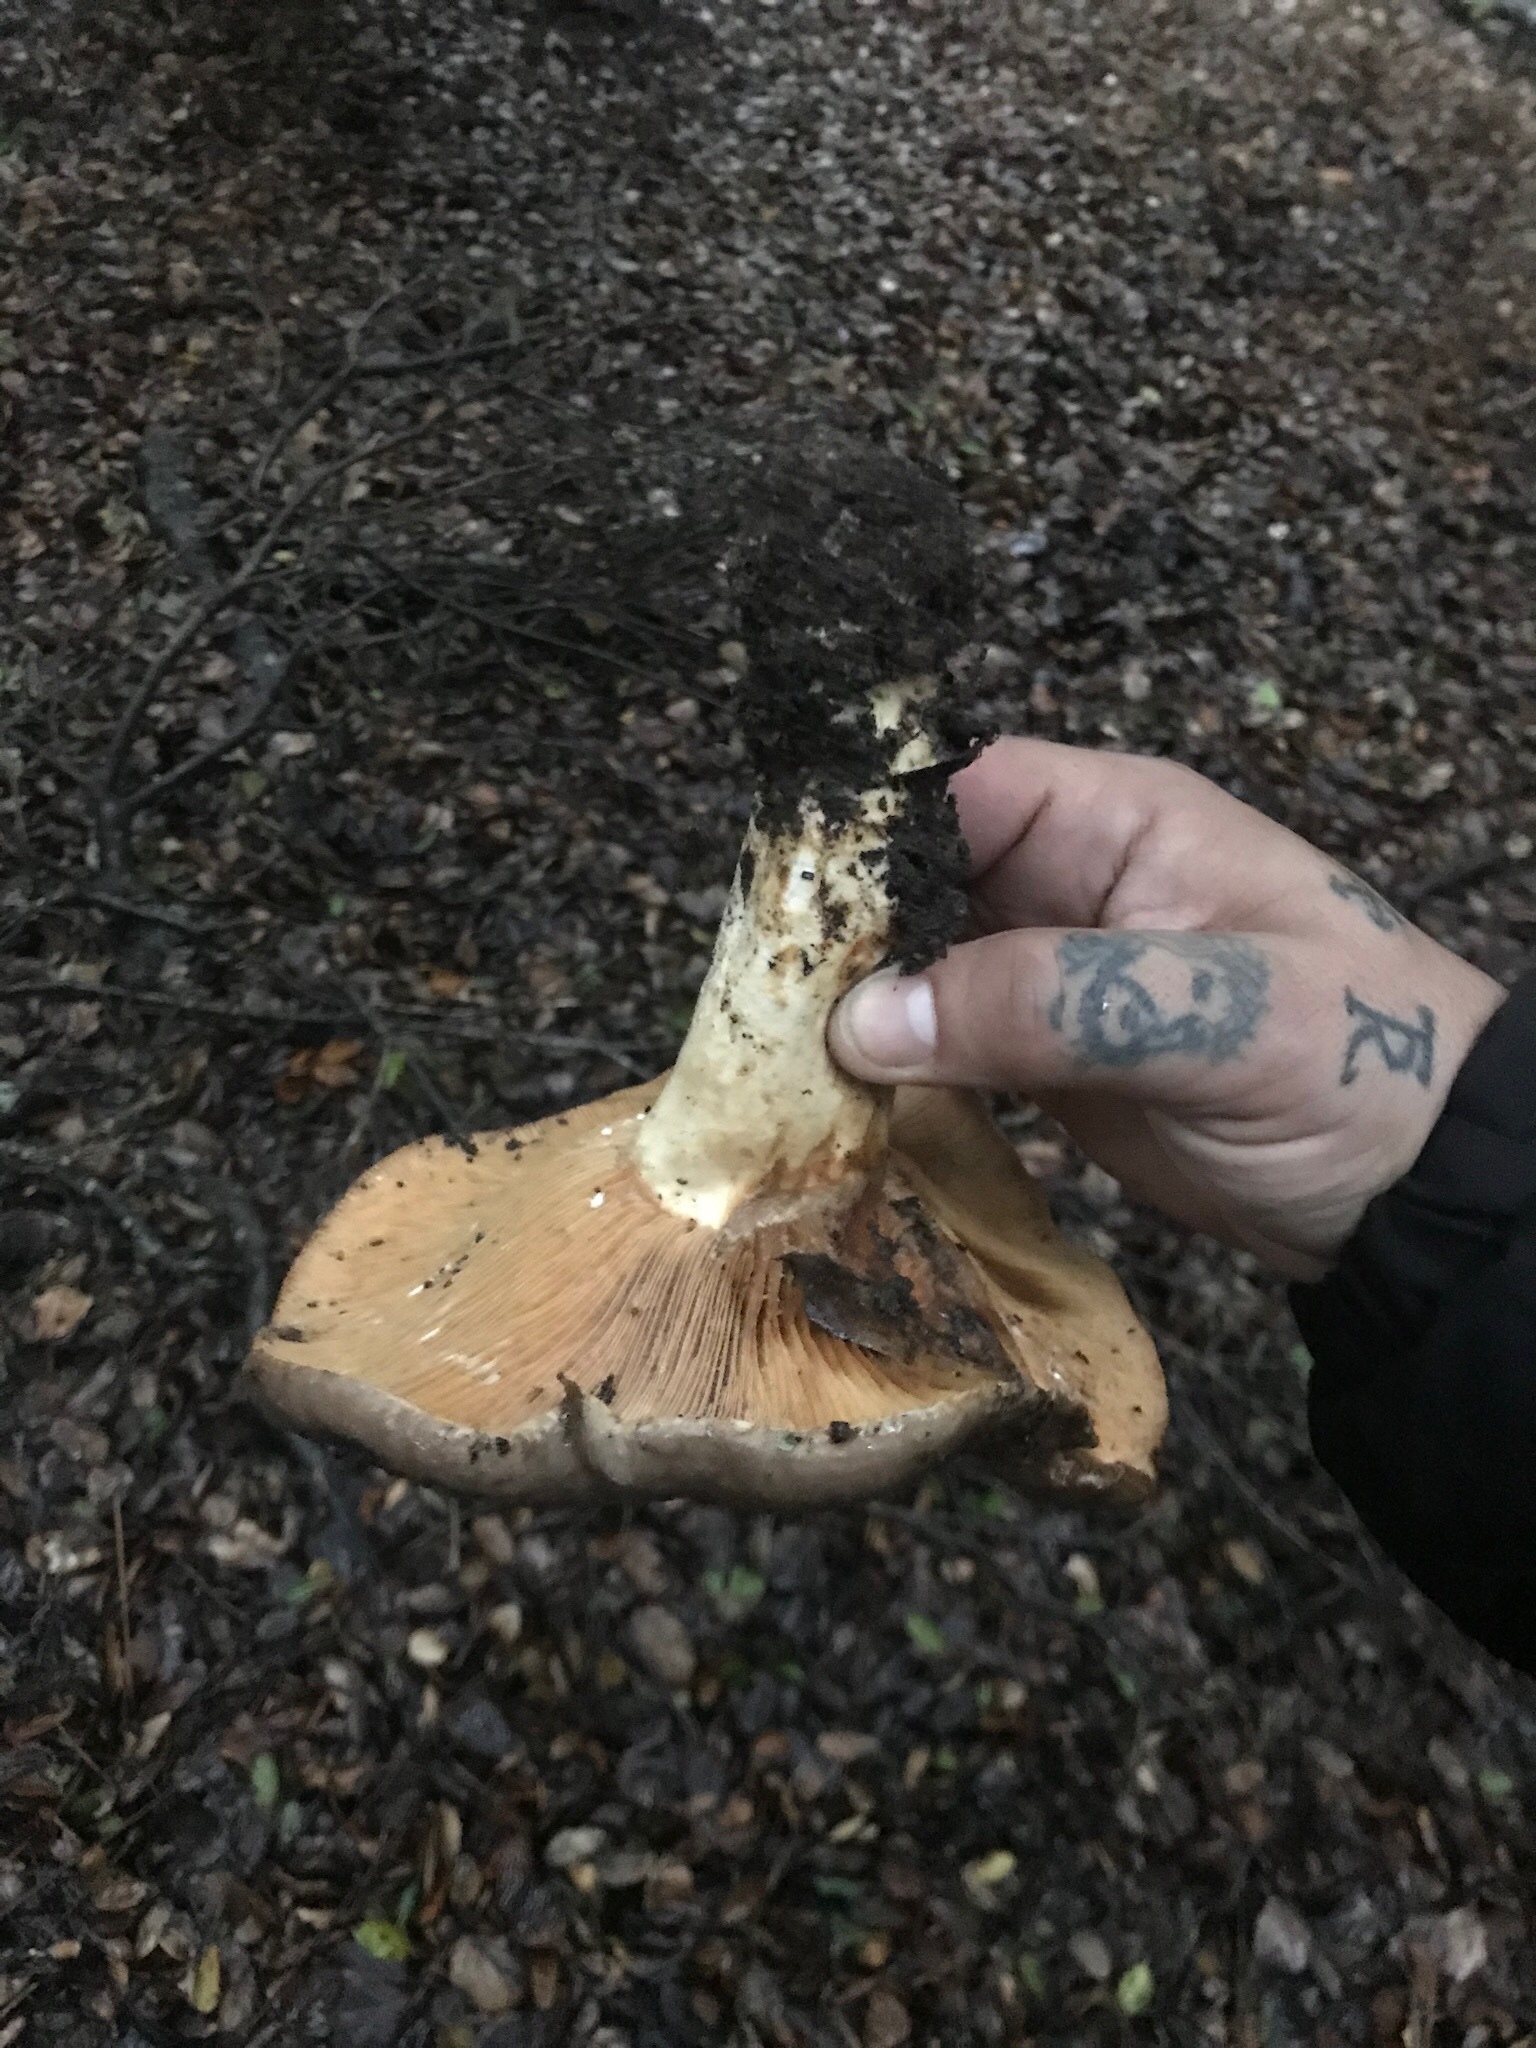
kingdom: Fungi
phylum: Basidiomycota
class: Agaricomycetes
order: Russulales
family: Russulaceae
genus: Lactarius
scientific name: Lactarius argillaceifolius
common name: Clay-gilled milkcap
